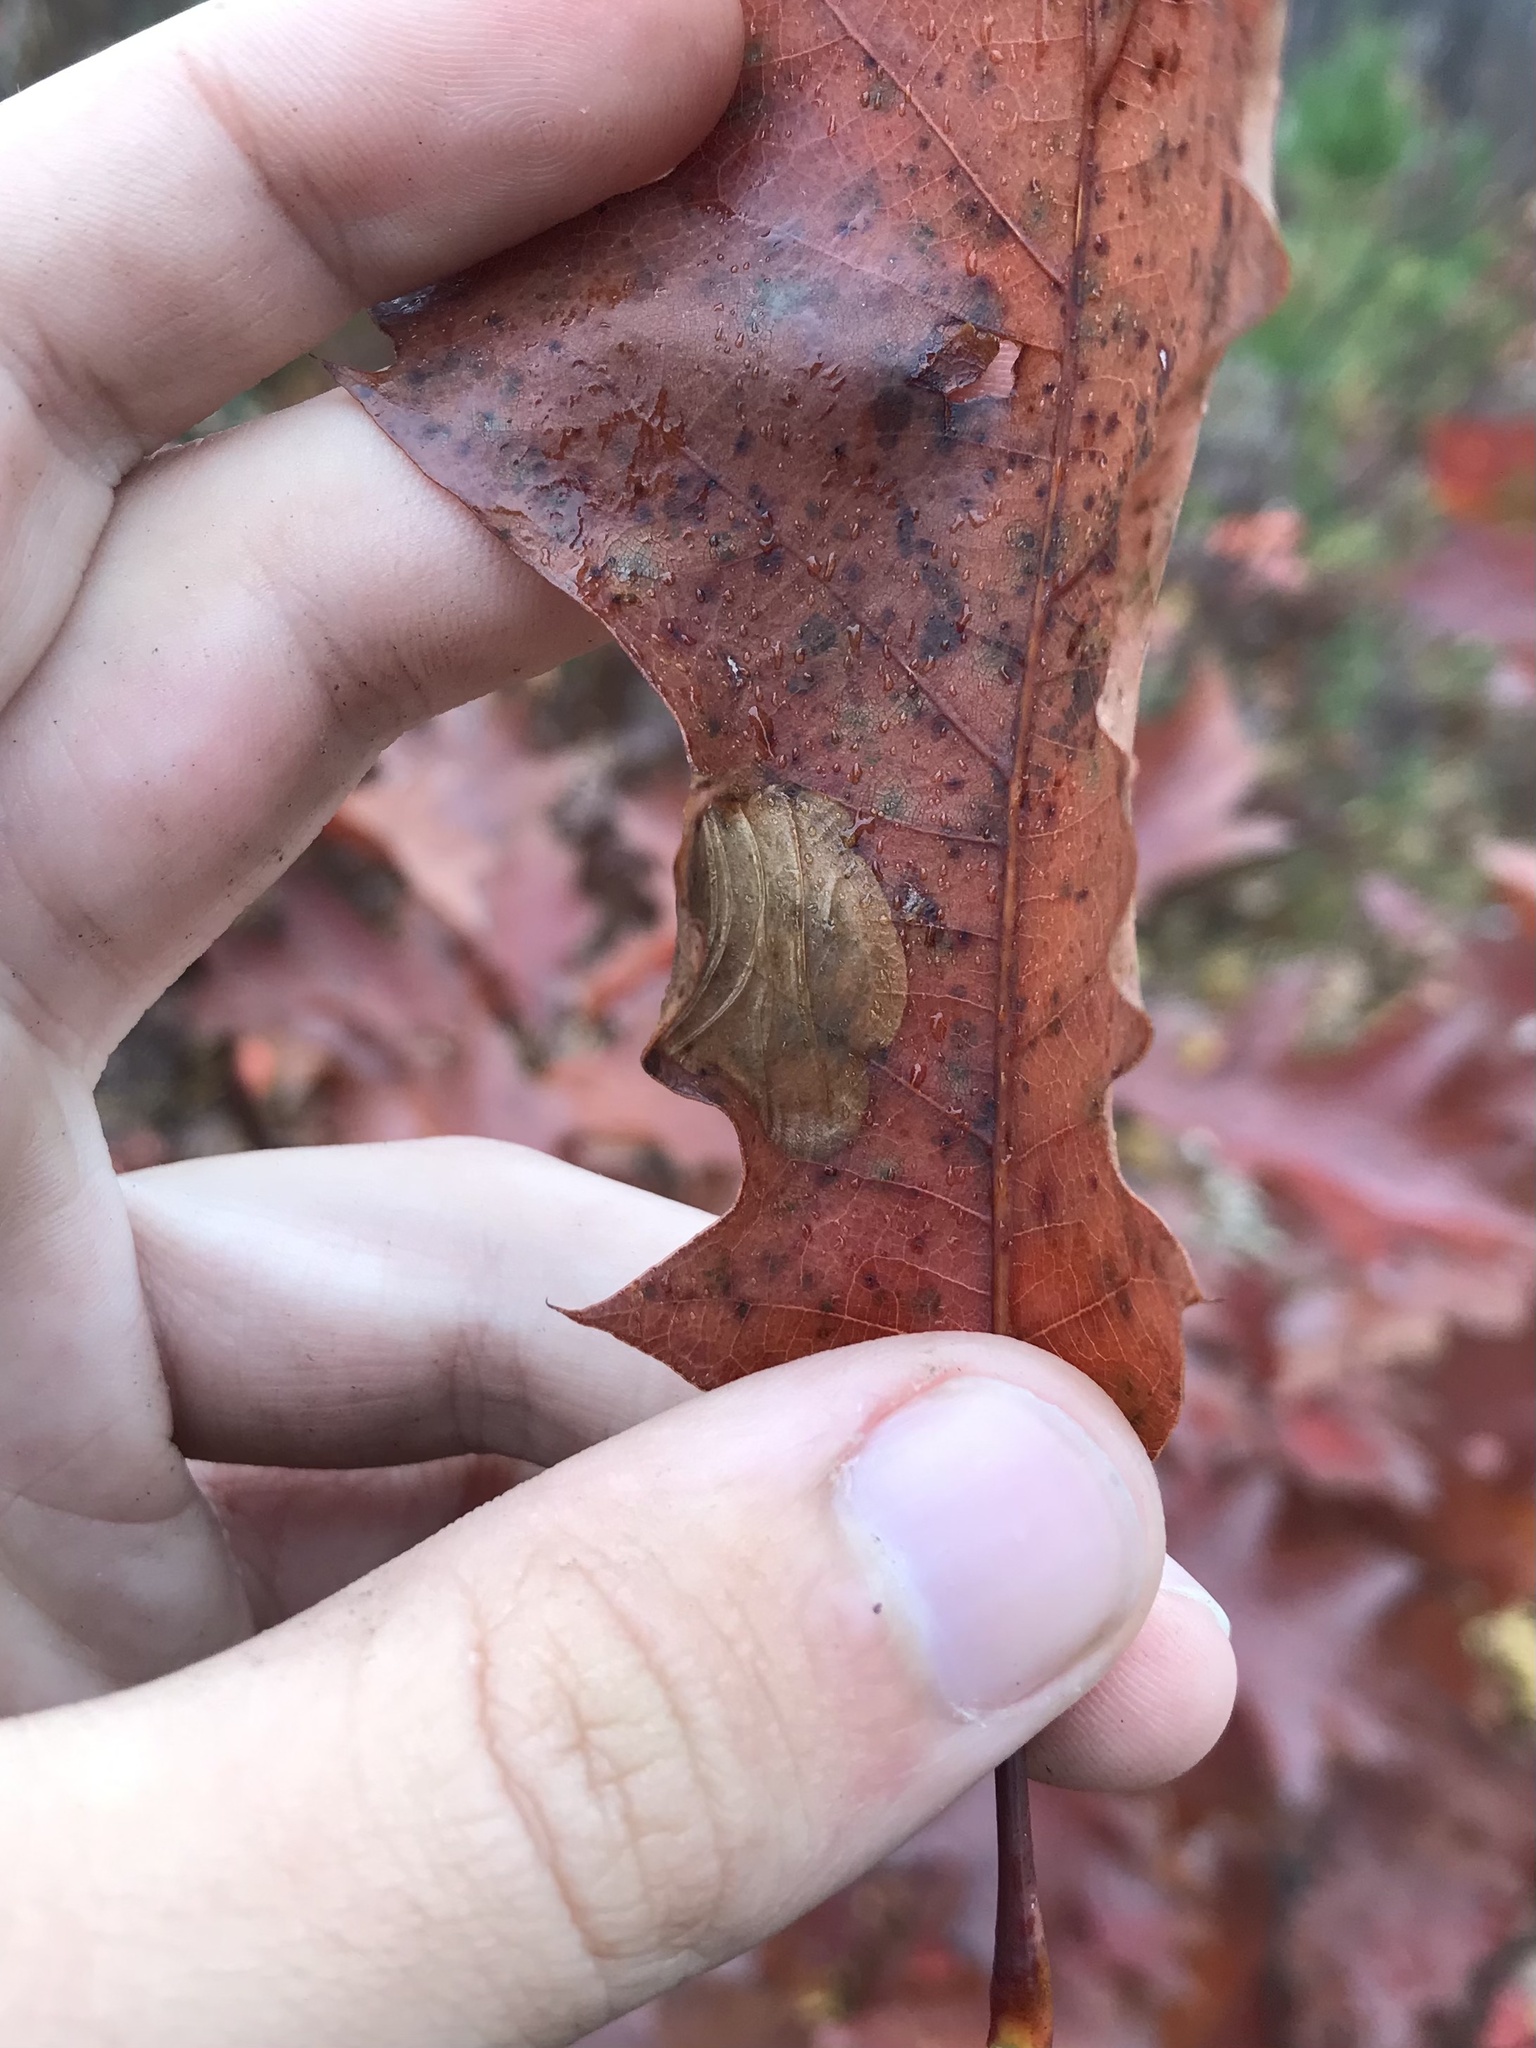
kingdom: Animalia
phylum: Arthropoda
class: Insecta
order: Lepidoptera
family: Gracillariidae
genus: Cameraria
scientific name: Cameraria arcuella
